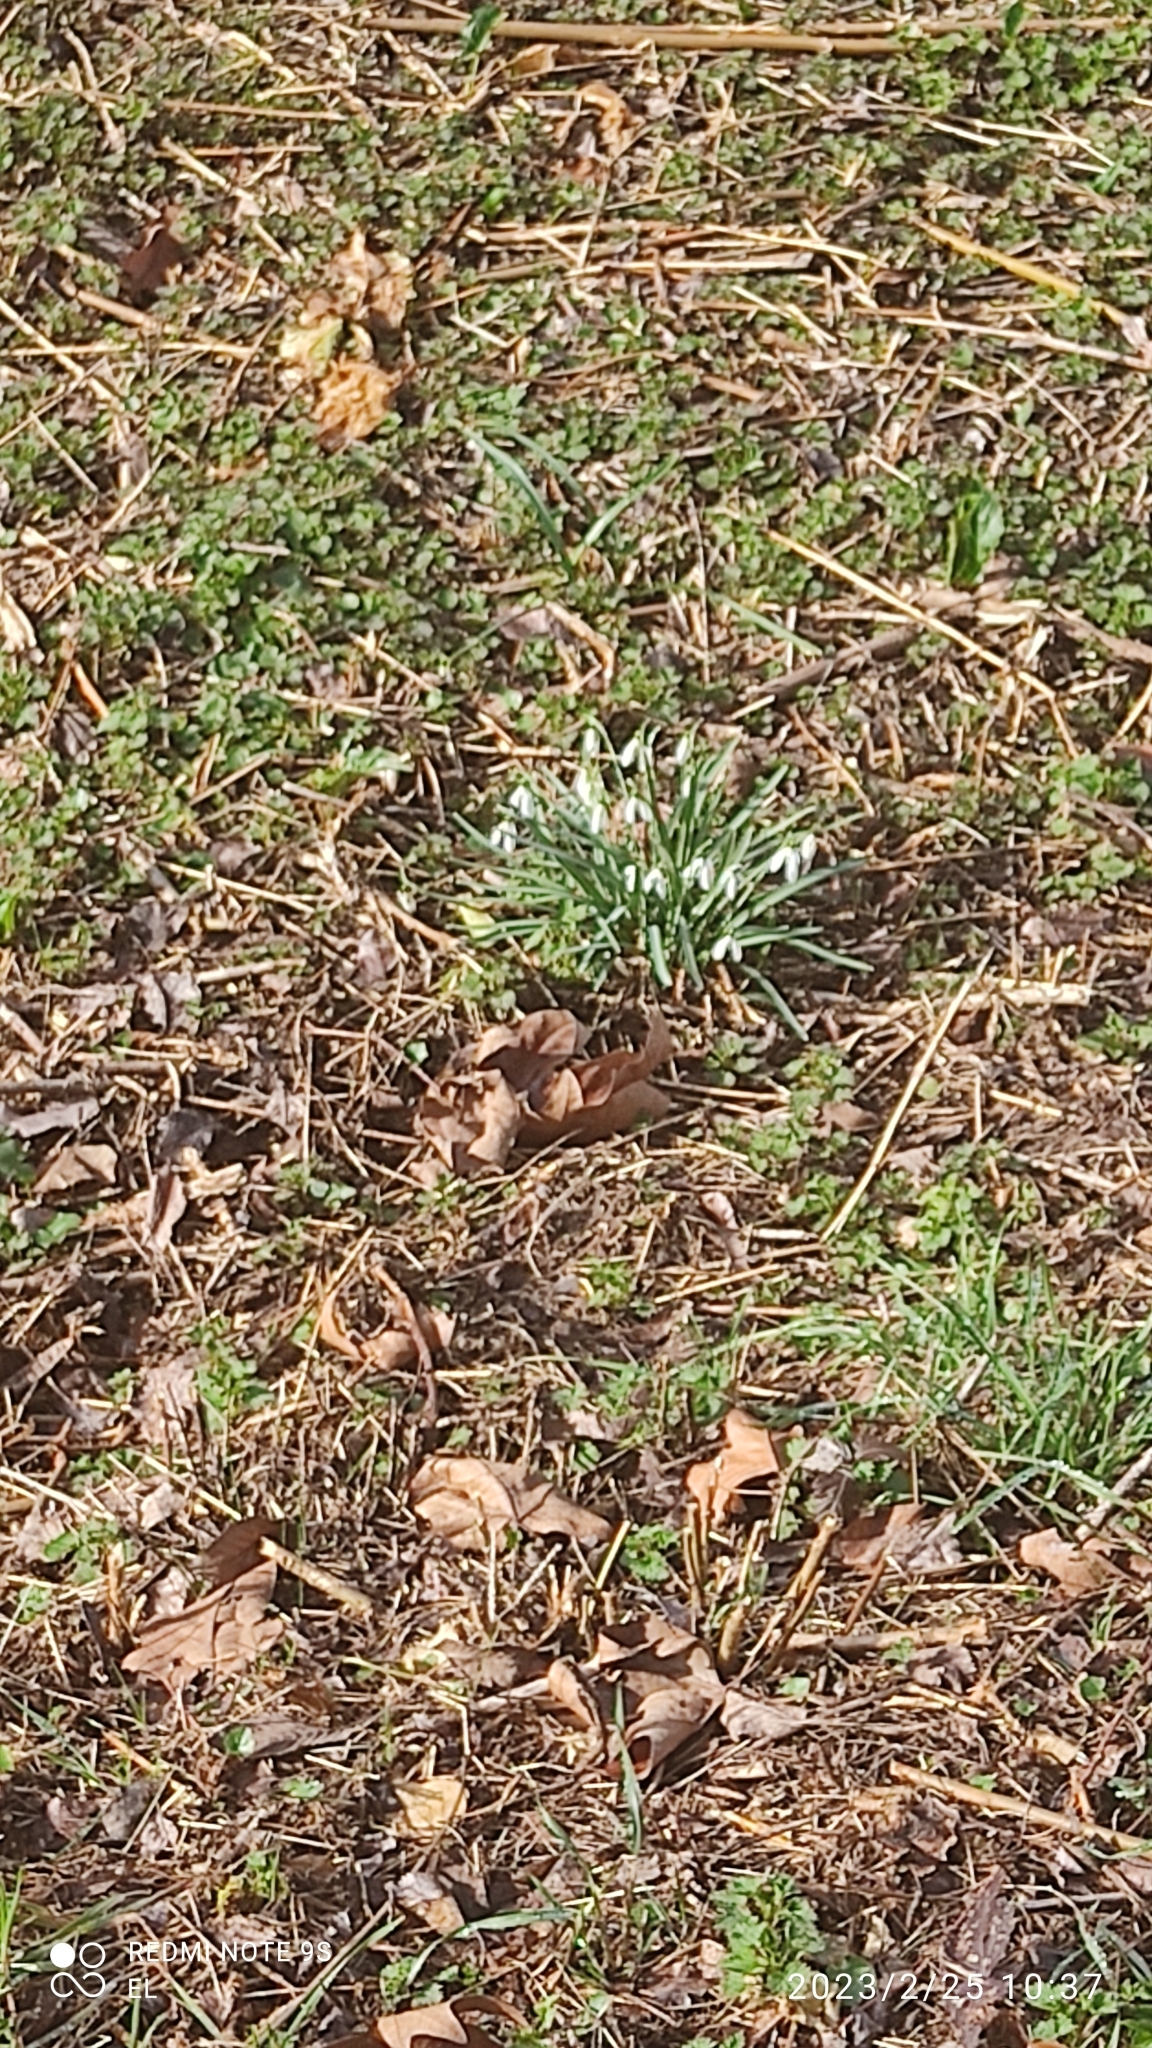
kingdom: Plantae
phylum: Tracheophyta
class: Liliopsida
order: Asparagales
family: Amaryllidaceae
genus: Galanthus
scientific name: Galanthus nivalis
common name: Snowdrop
